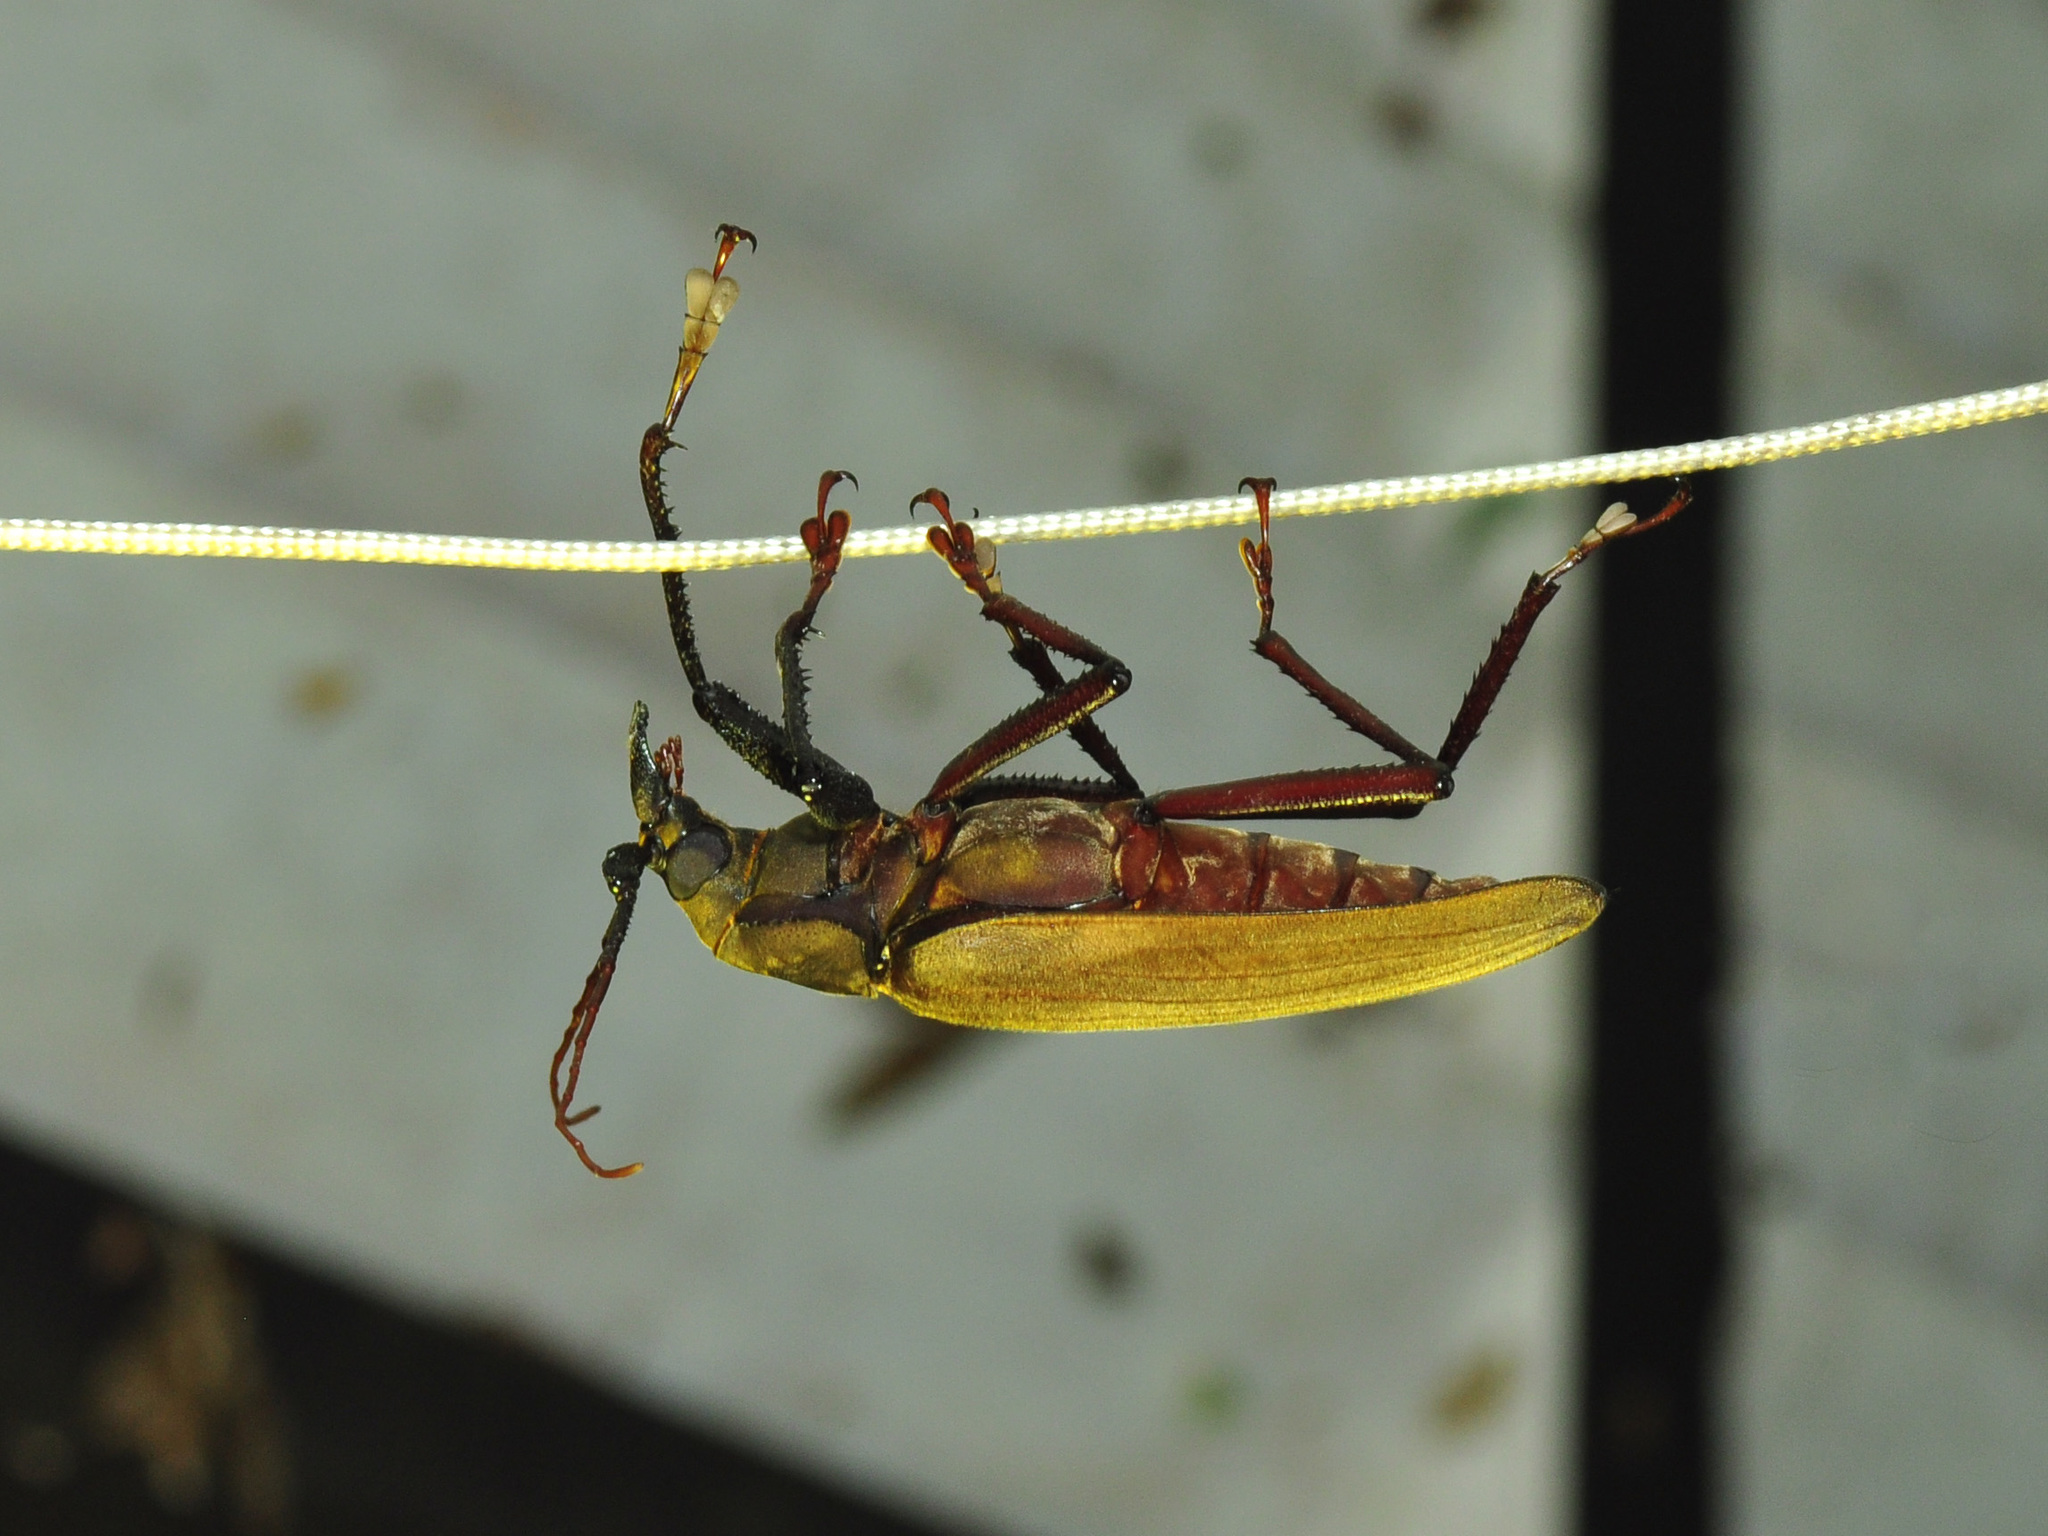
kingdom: Animalia
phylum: Arthropoda
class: Insecta
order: Coleoptera
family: Cerambycidae
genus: Xixuthrus
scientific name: Xixuthrus microcerus
